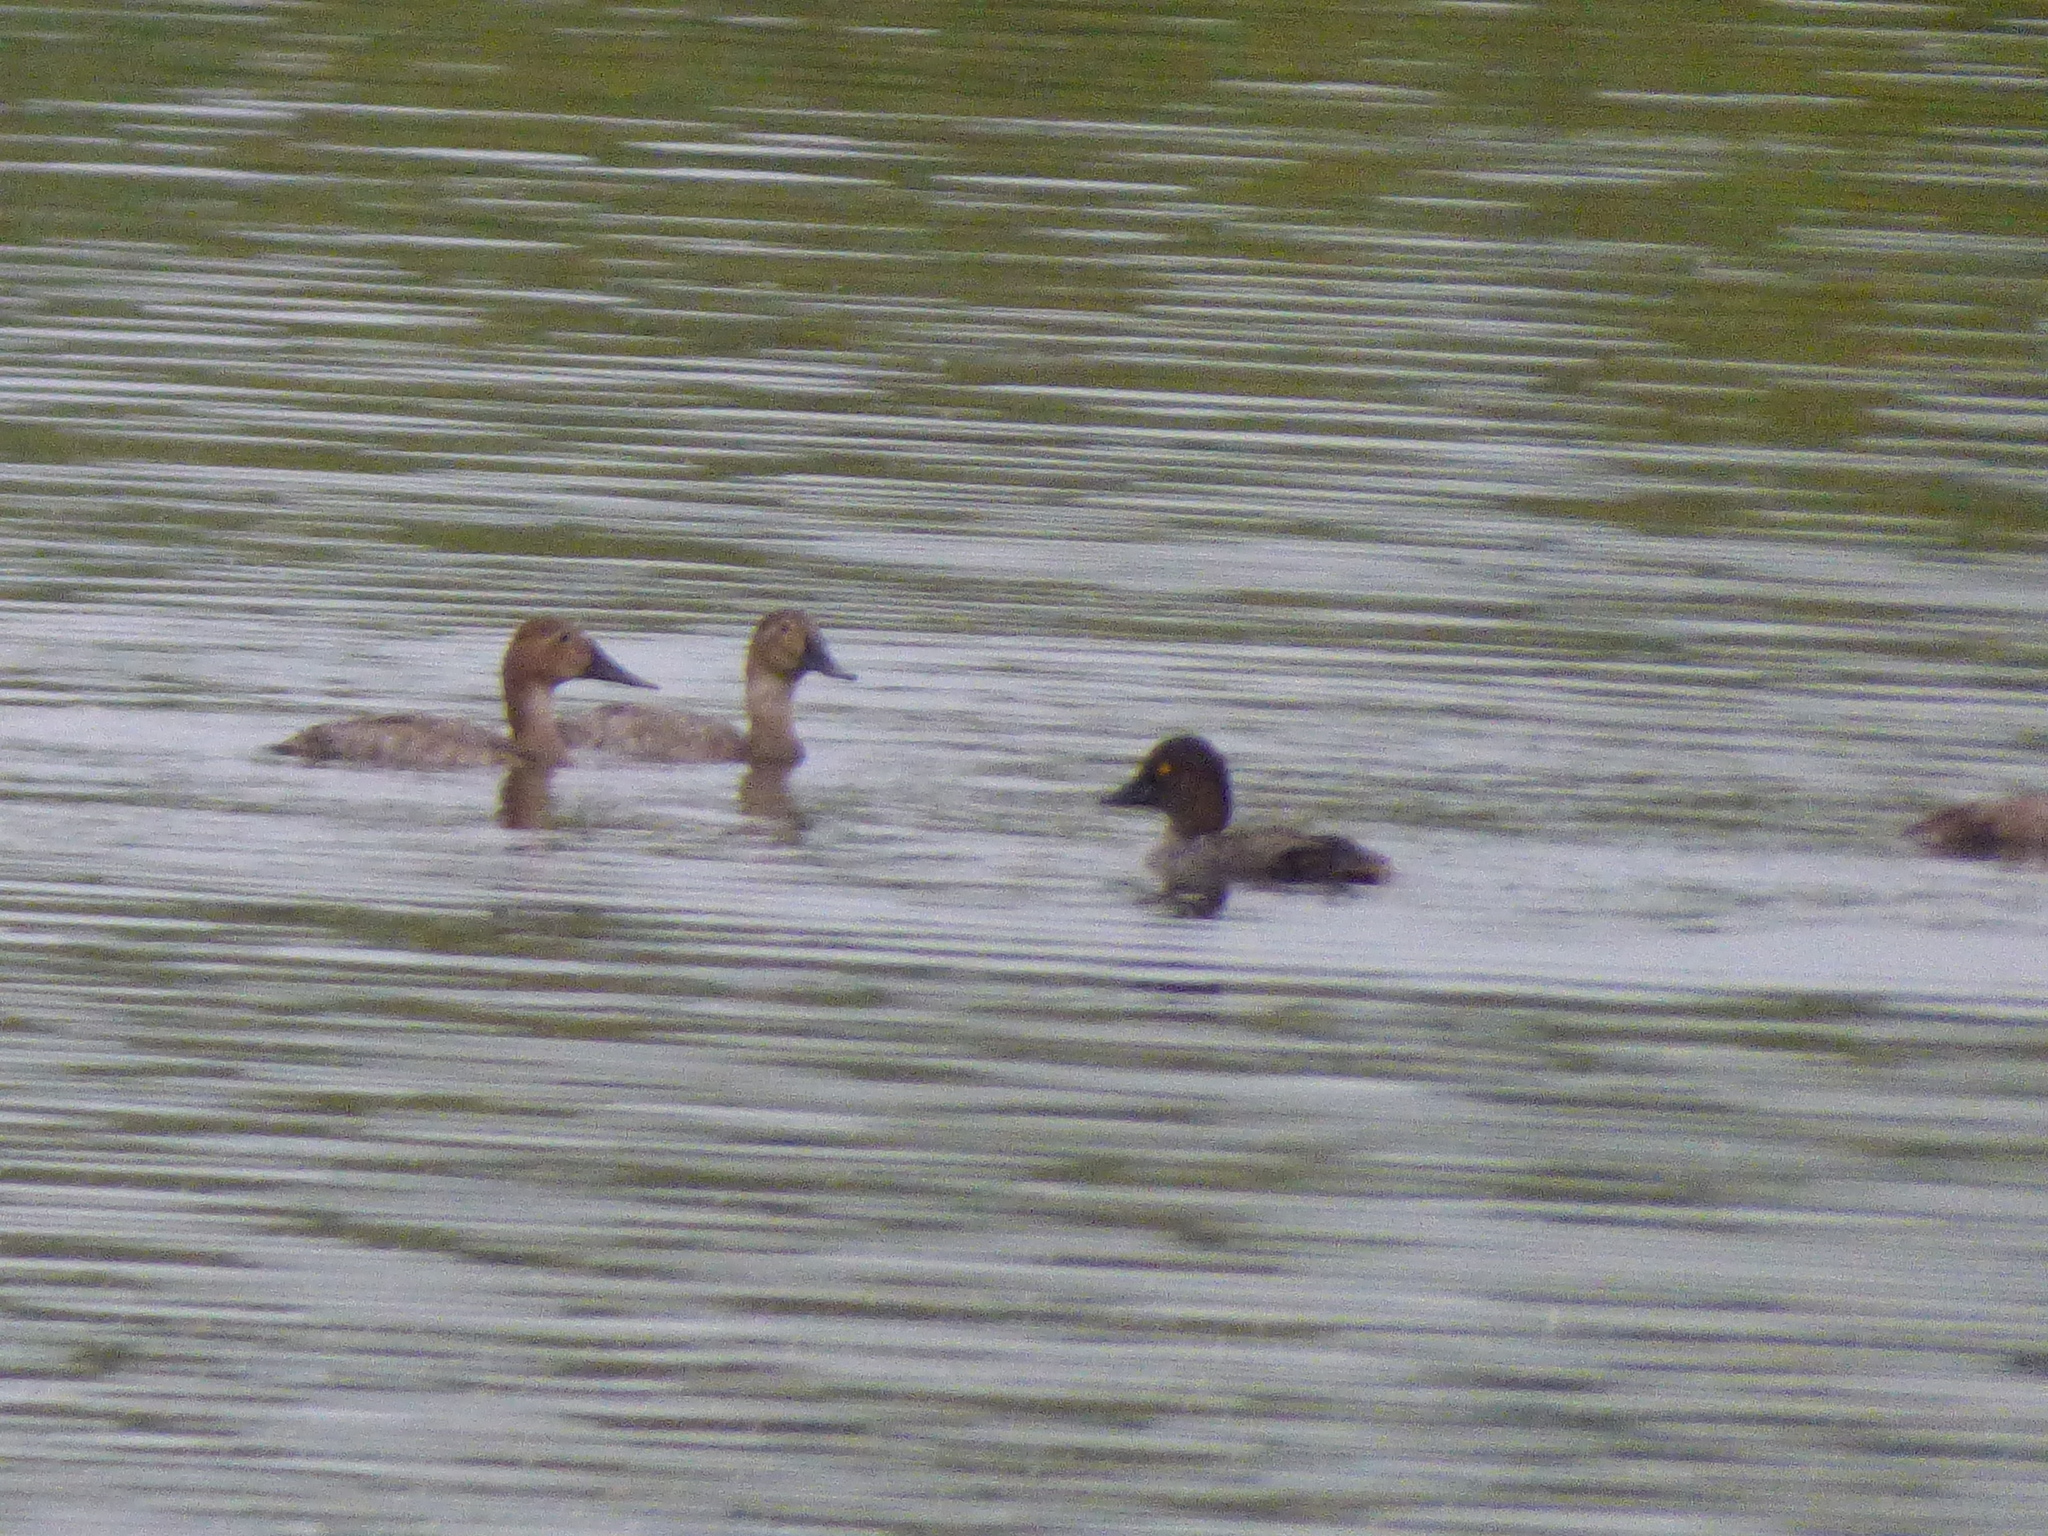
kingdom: Animalia
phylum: Chordata
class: Aves
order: Anseriformes
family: Anatidae
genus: Aythya
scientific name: Aythya valisineria
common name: Canvasback
